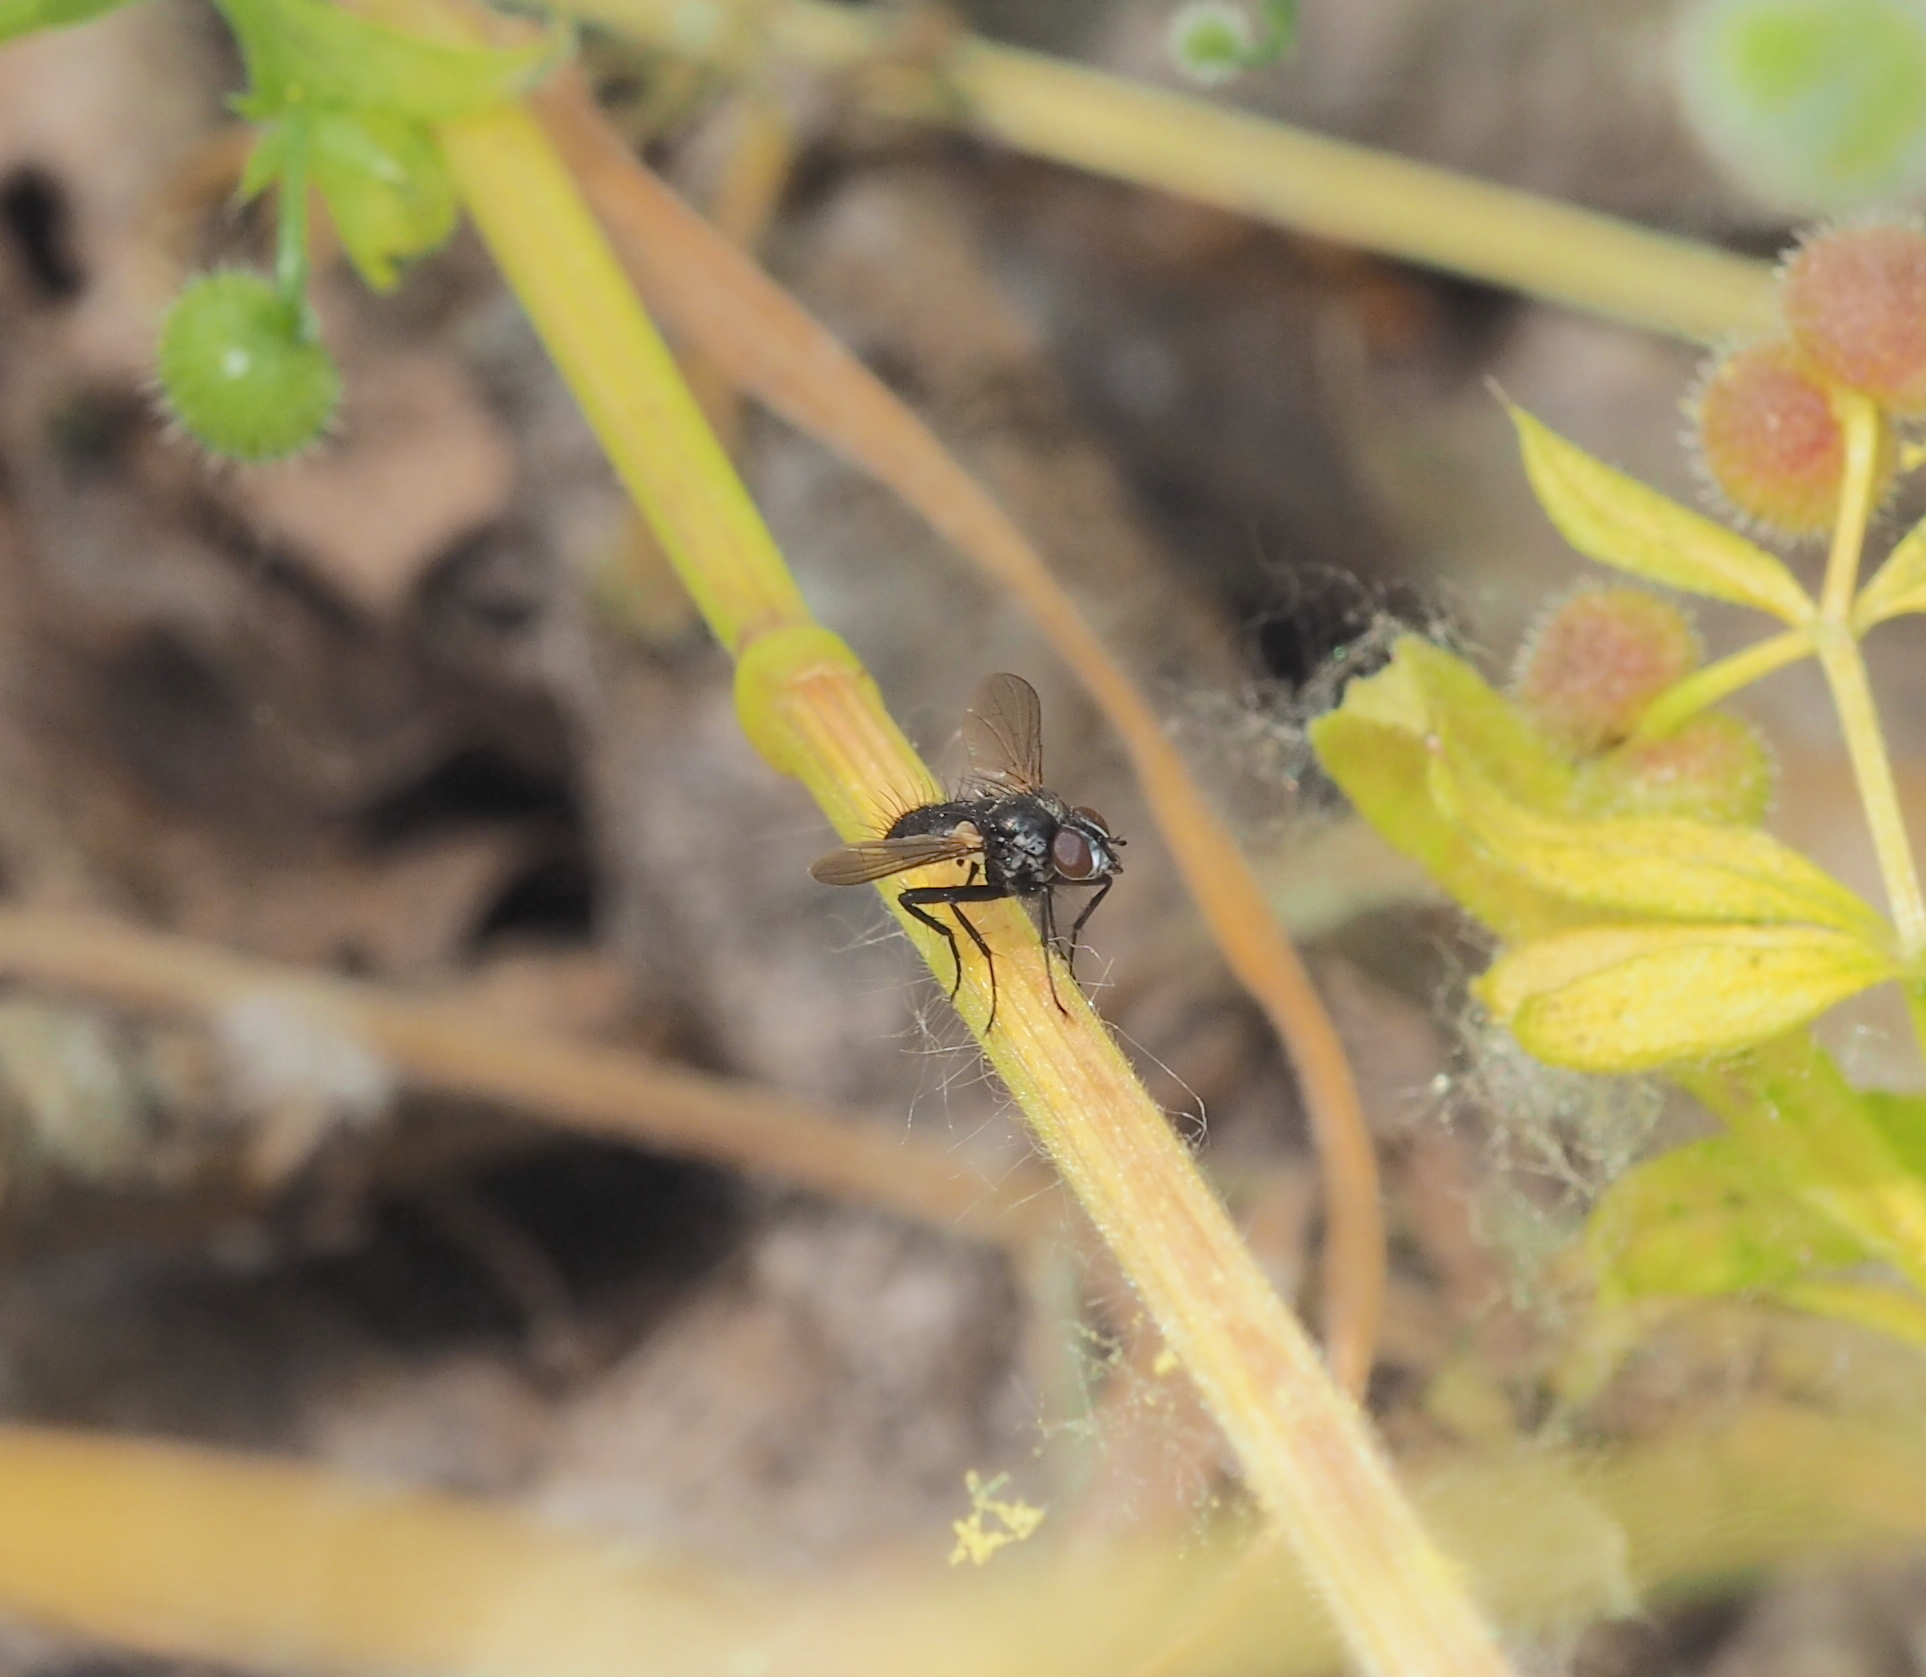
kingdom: Animalia
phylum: Arthropoda
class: Insecta
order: Diptera
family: Tachinidae
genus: Phania
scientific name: Phania funesta
